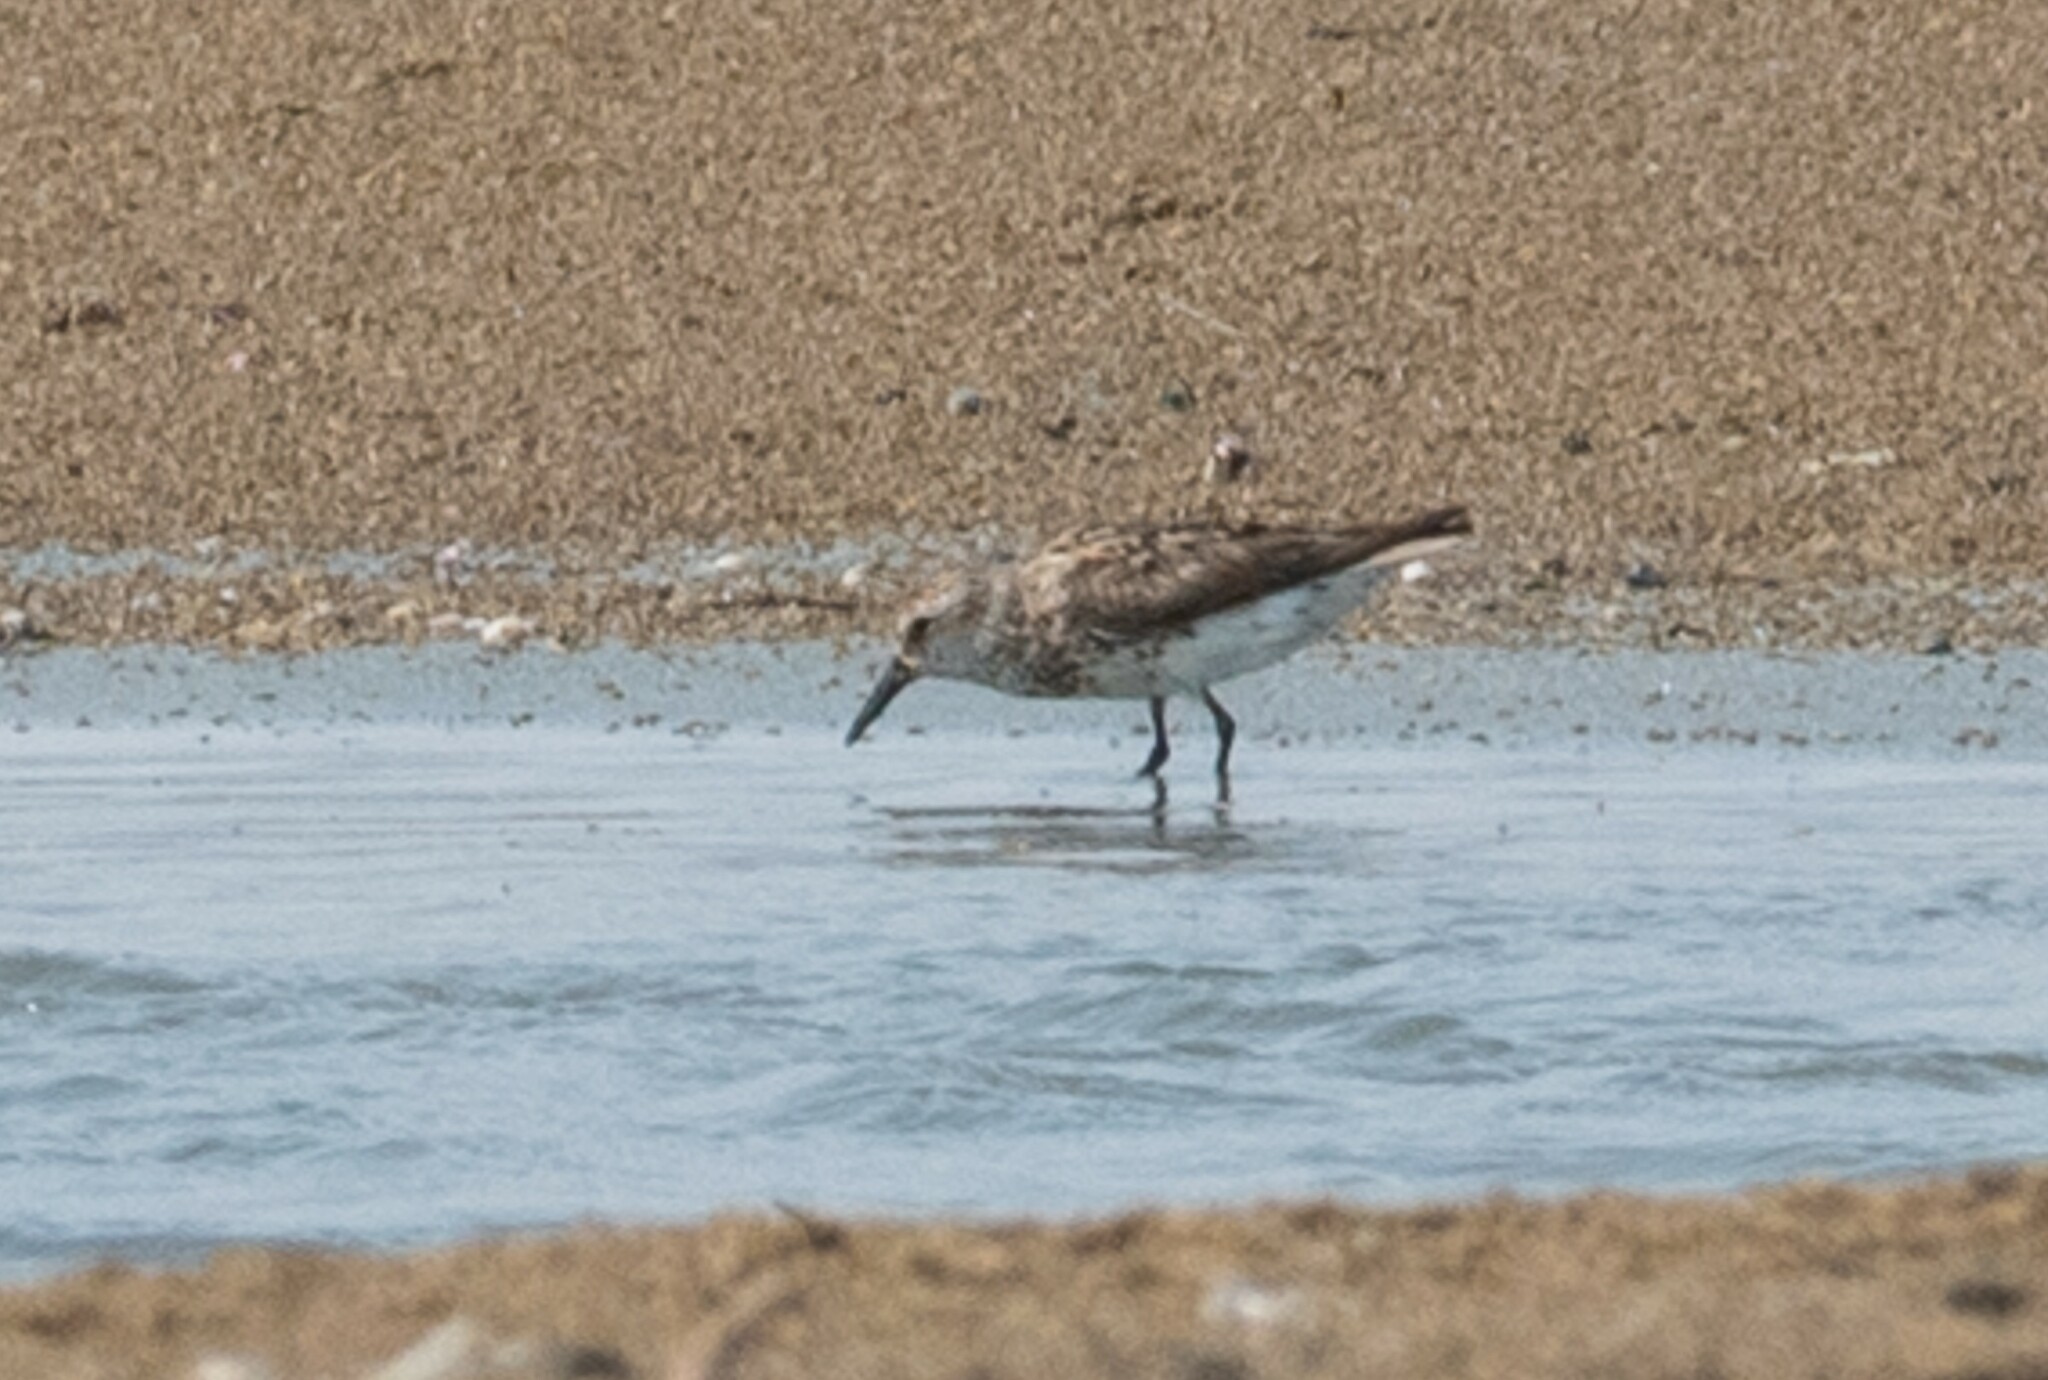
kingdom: Animalia
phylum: Chordata
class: Aves
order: Charadriiformes
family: Scolopacidae
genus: Calidris
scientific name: Calidris mauri
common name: Western sandpiper
